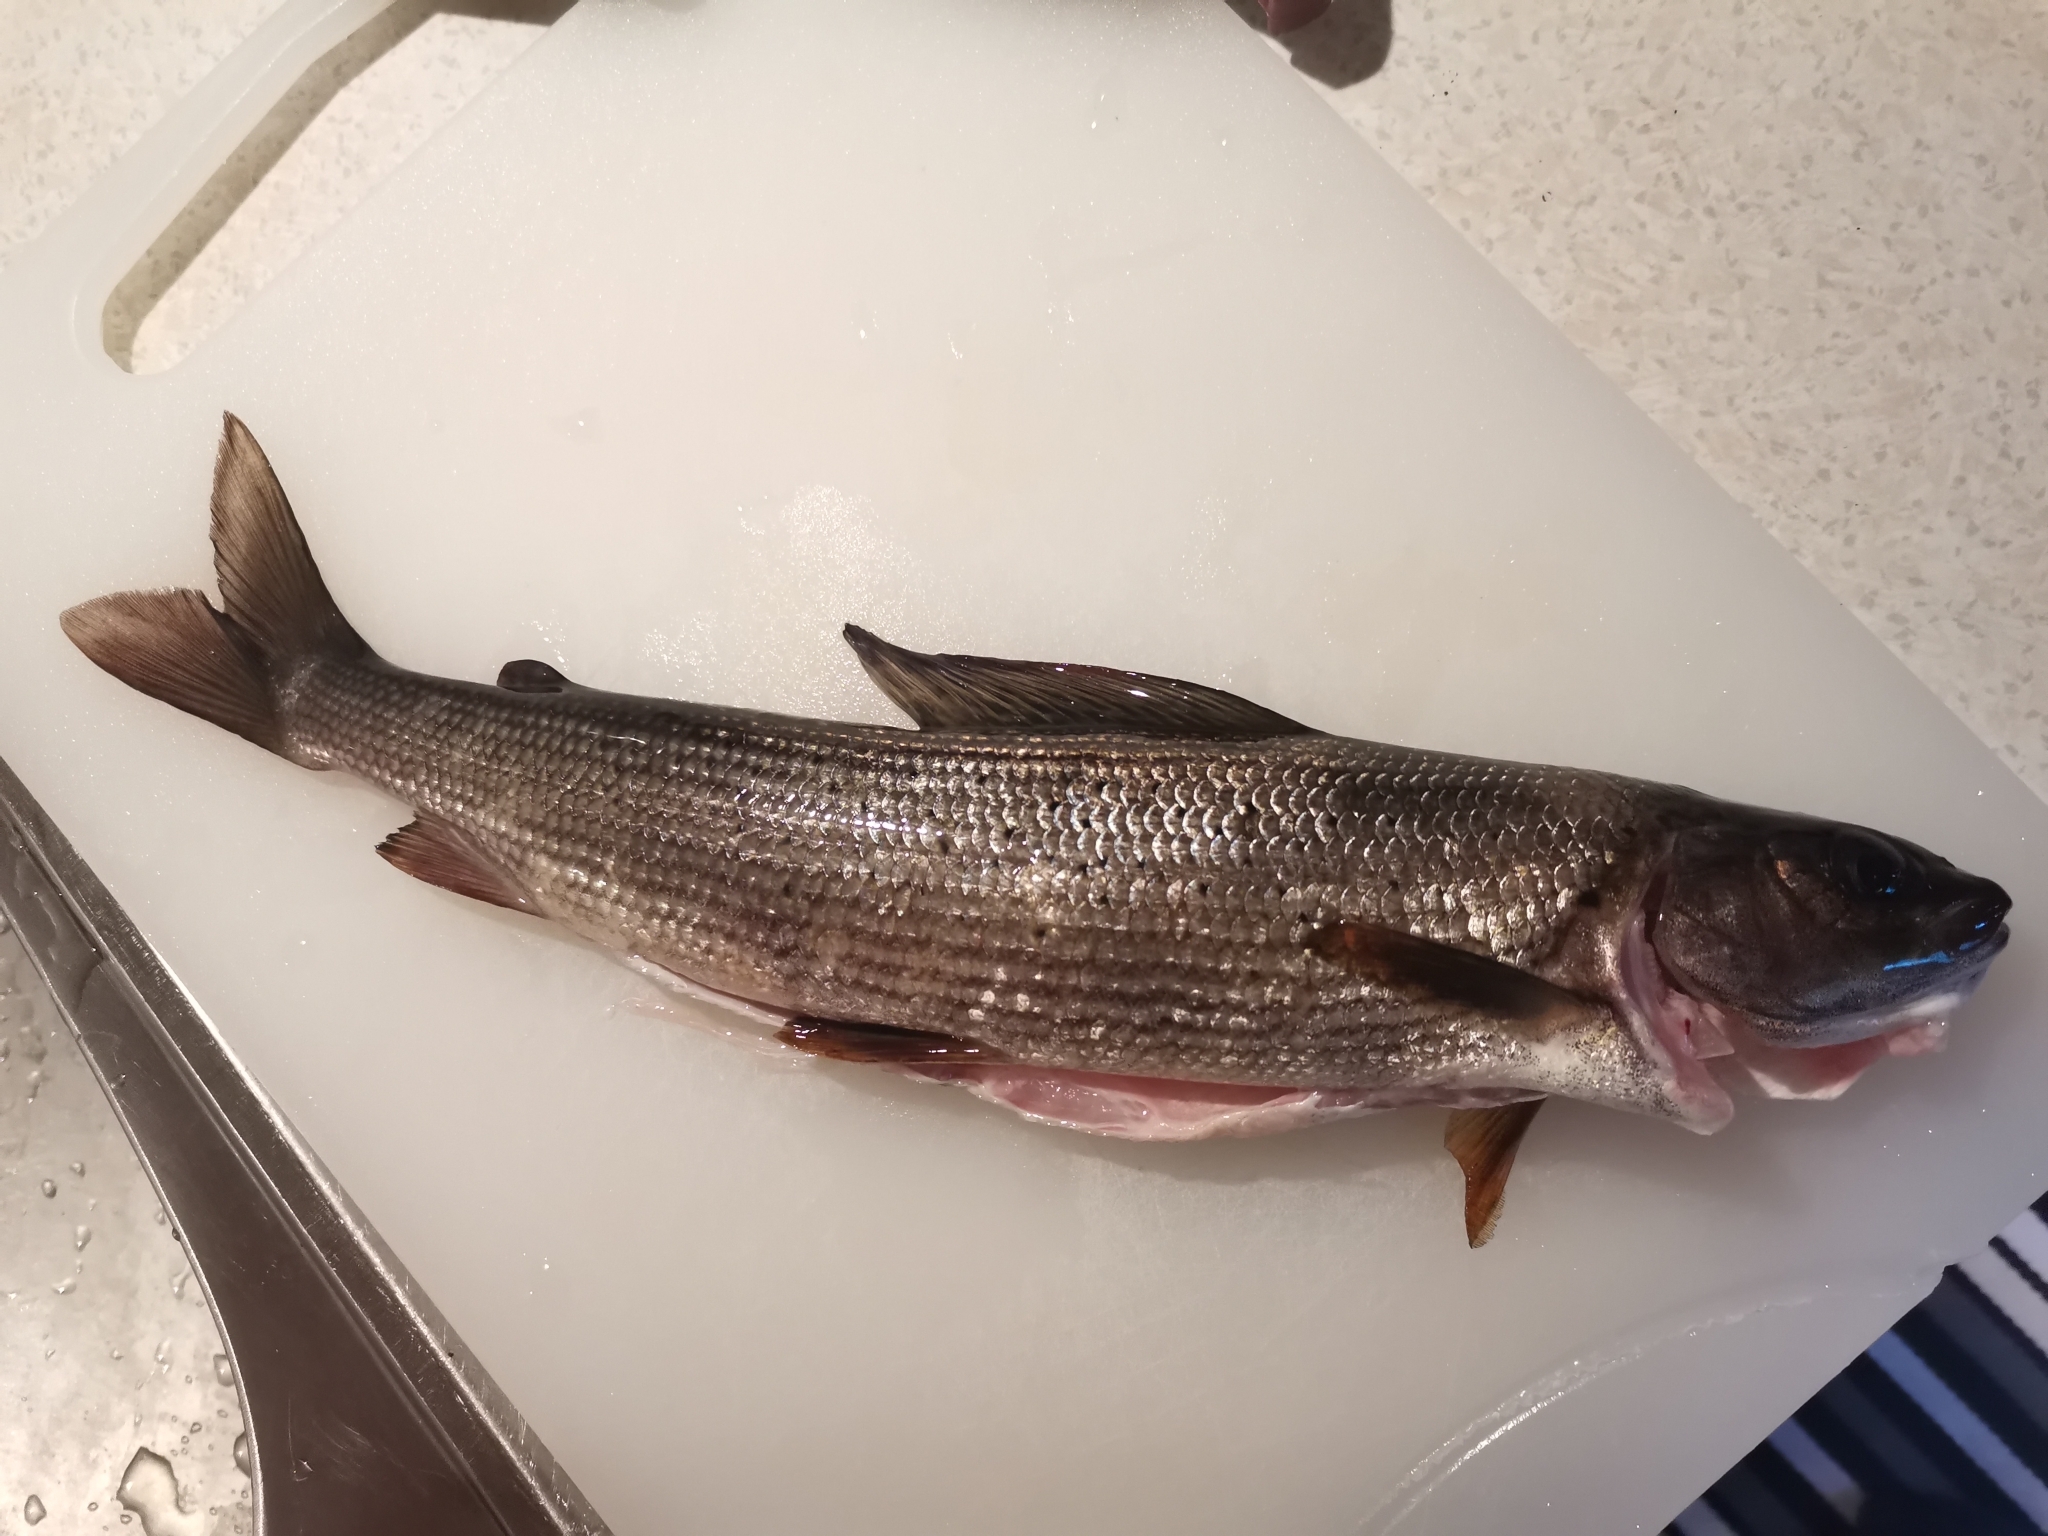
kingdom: Animalia
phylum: Chordata
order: Salmoniformes
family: Salmonidae
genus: Thymallus
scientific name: Thymallus thymallus
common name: Grayling
